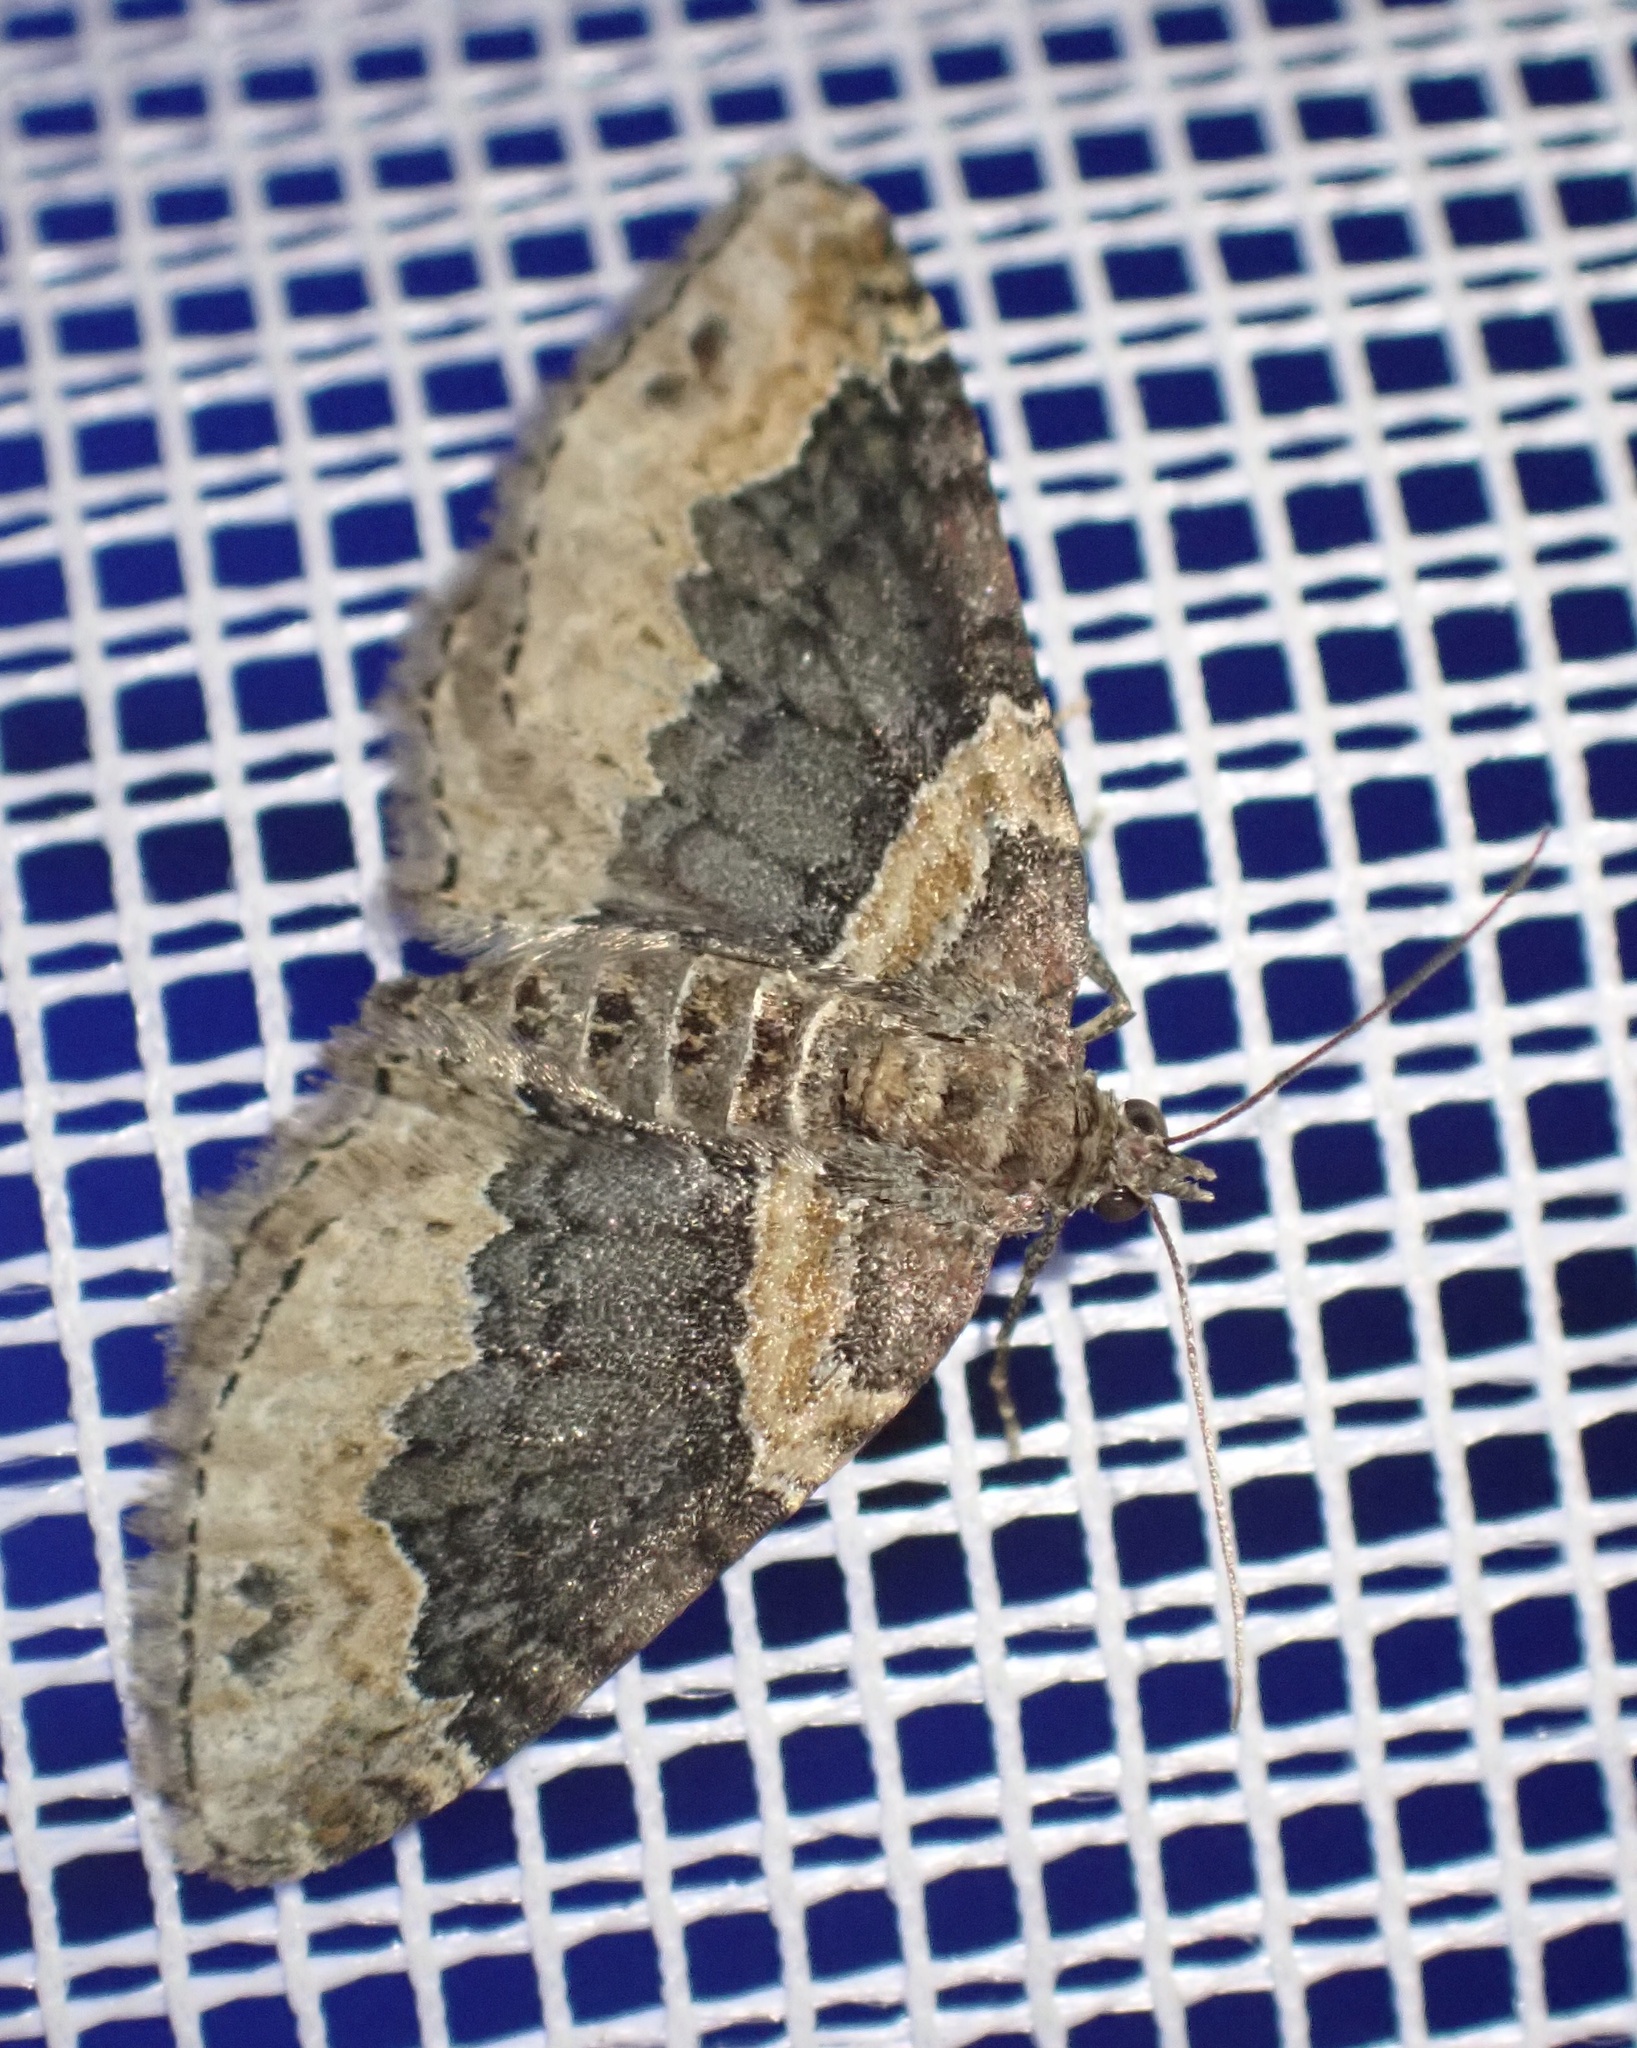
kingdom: Animalia
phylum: Arthropoda
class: Insecta
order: Lepidoptera
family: Geometridae
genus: Xanthorhoe
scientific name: Xanthorhoe ferrugata
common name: Dark-barred twin-spot carpet
